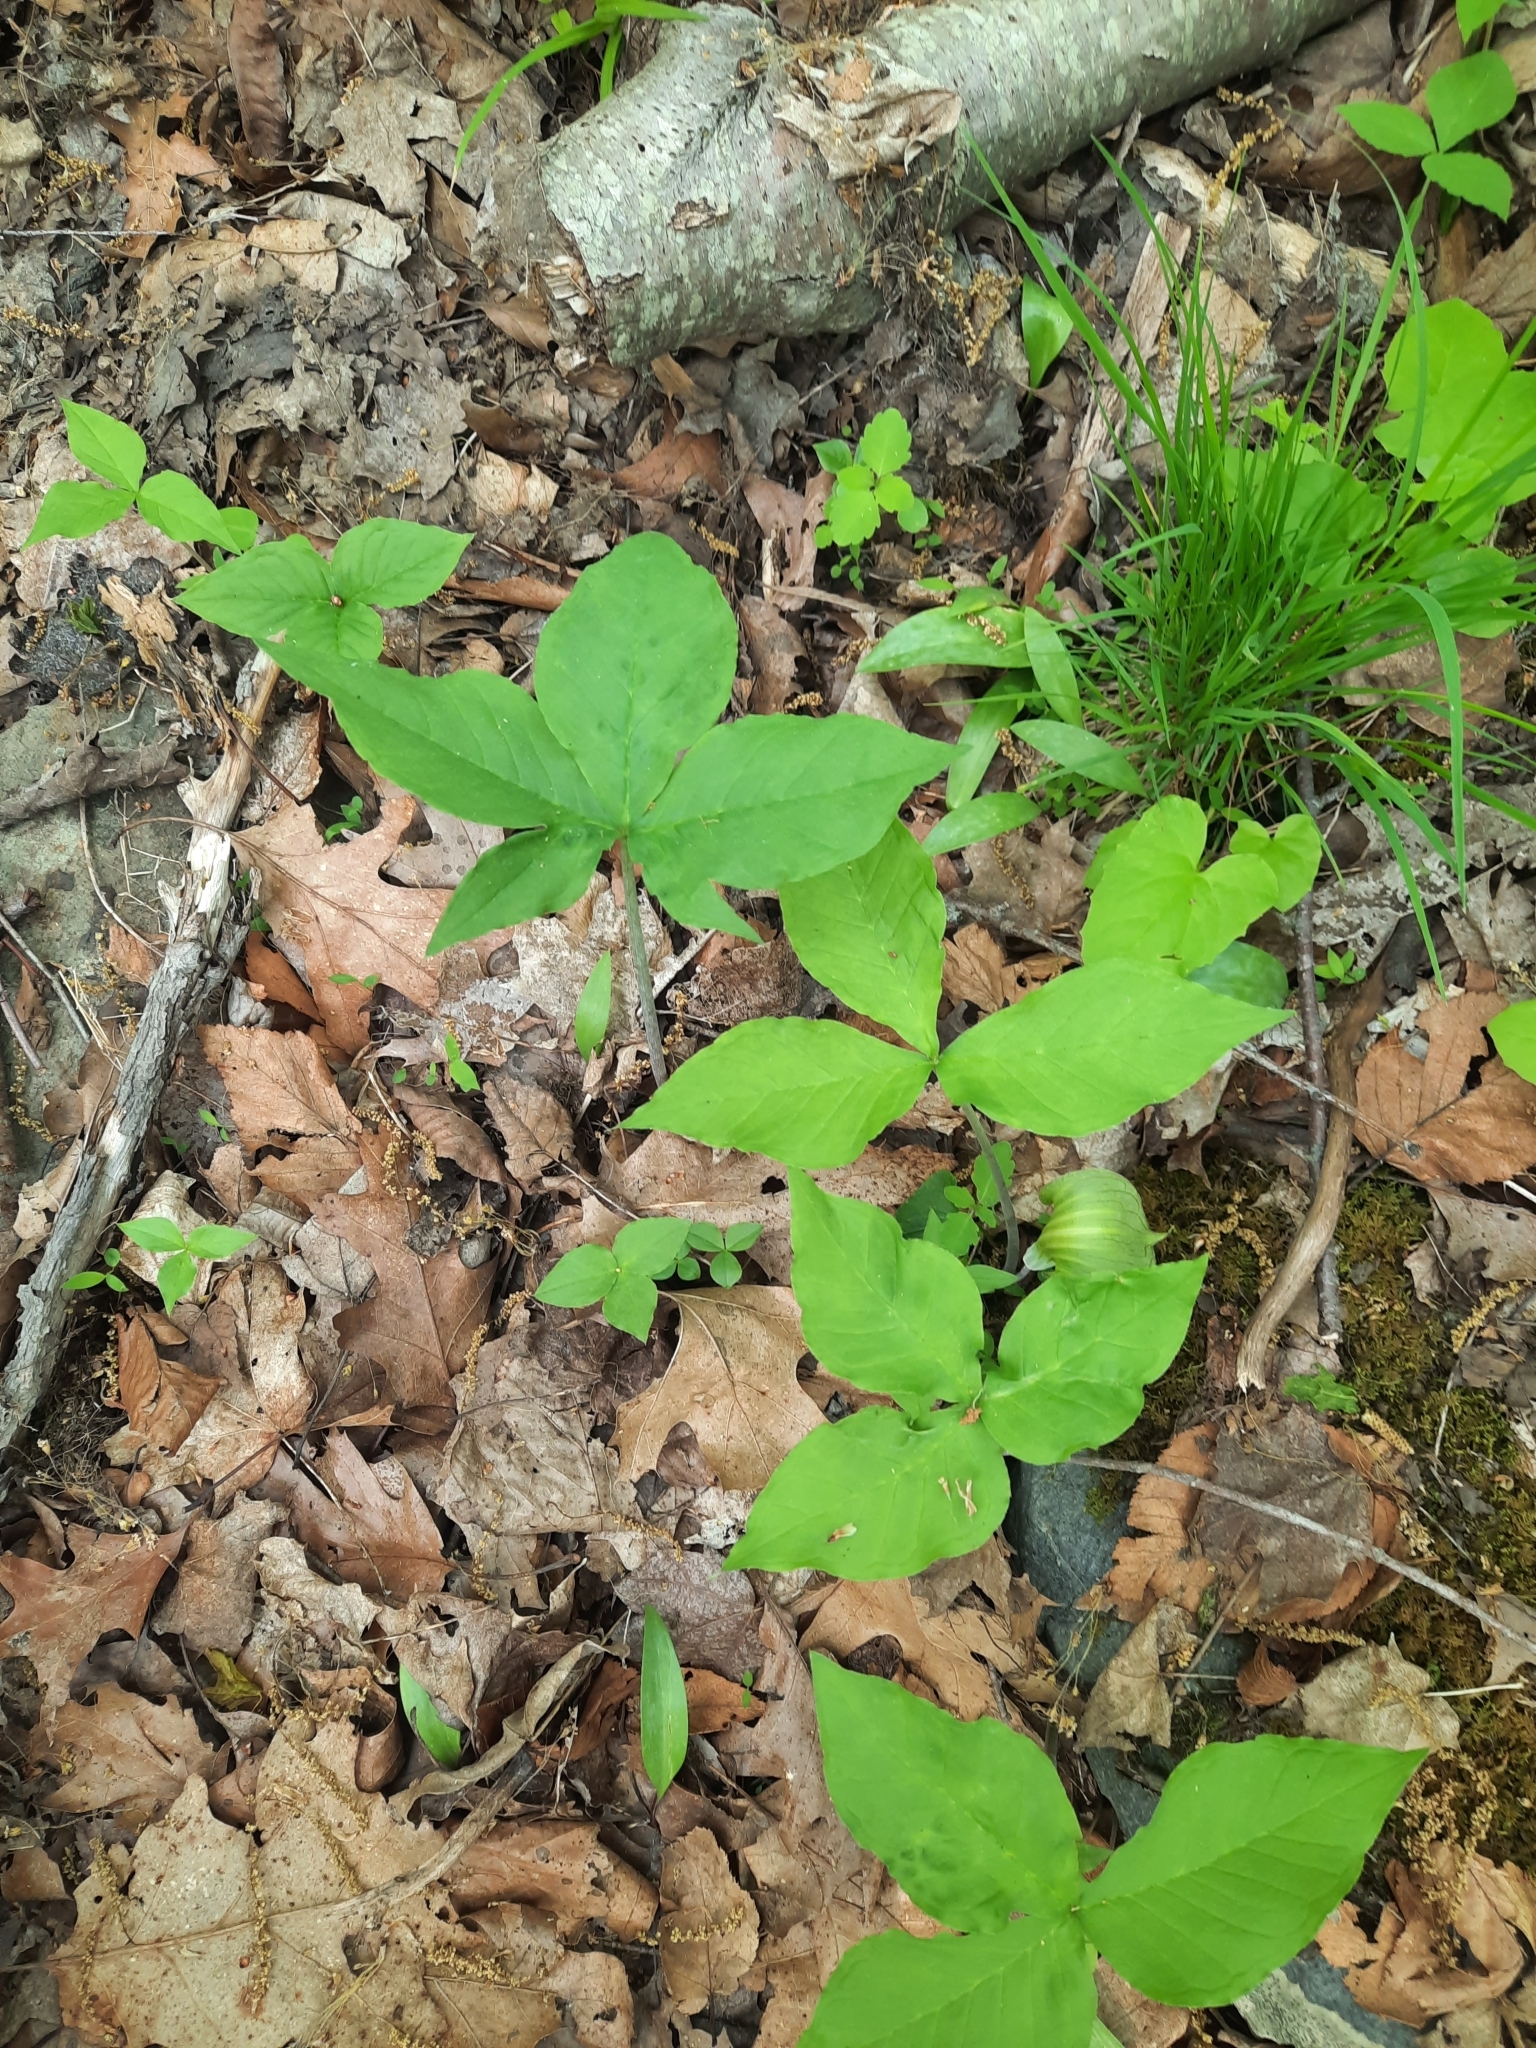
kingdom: Plantae
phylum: Tracheophyta
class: Liliopsida
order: Alismatales
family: Araceae
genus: Arisaema
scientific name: Arisaema triphyllum
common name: Jack-in-the-pulpit
